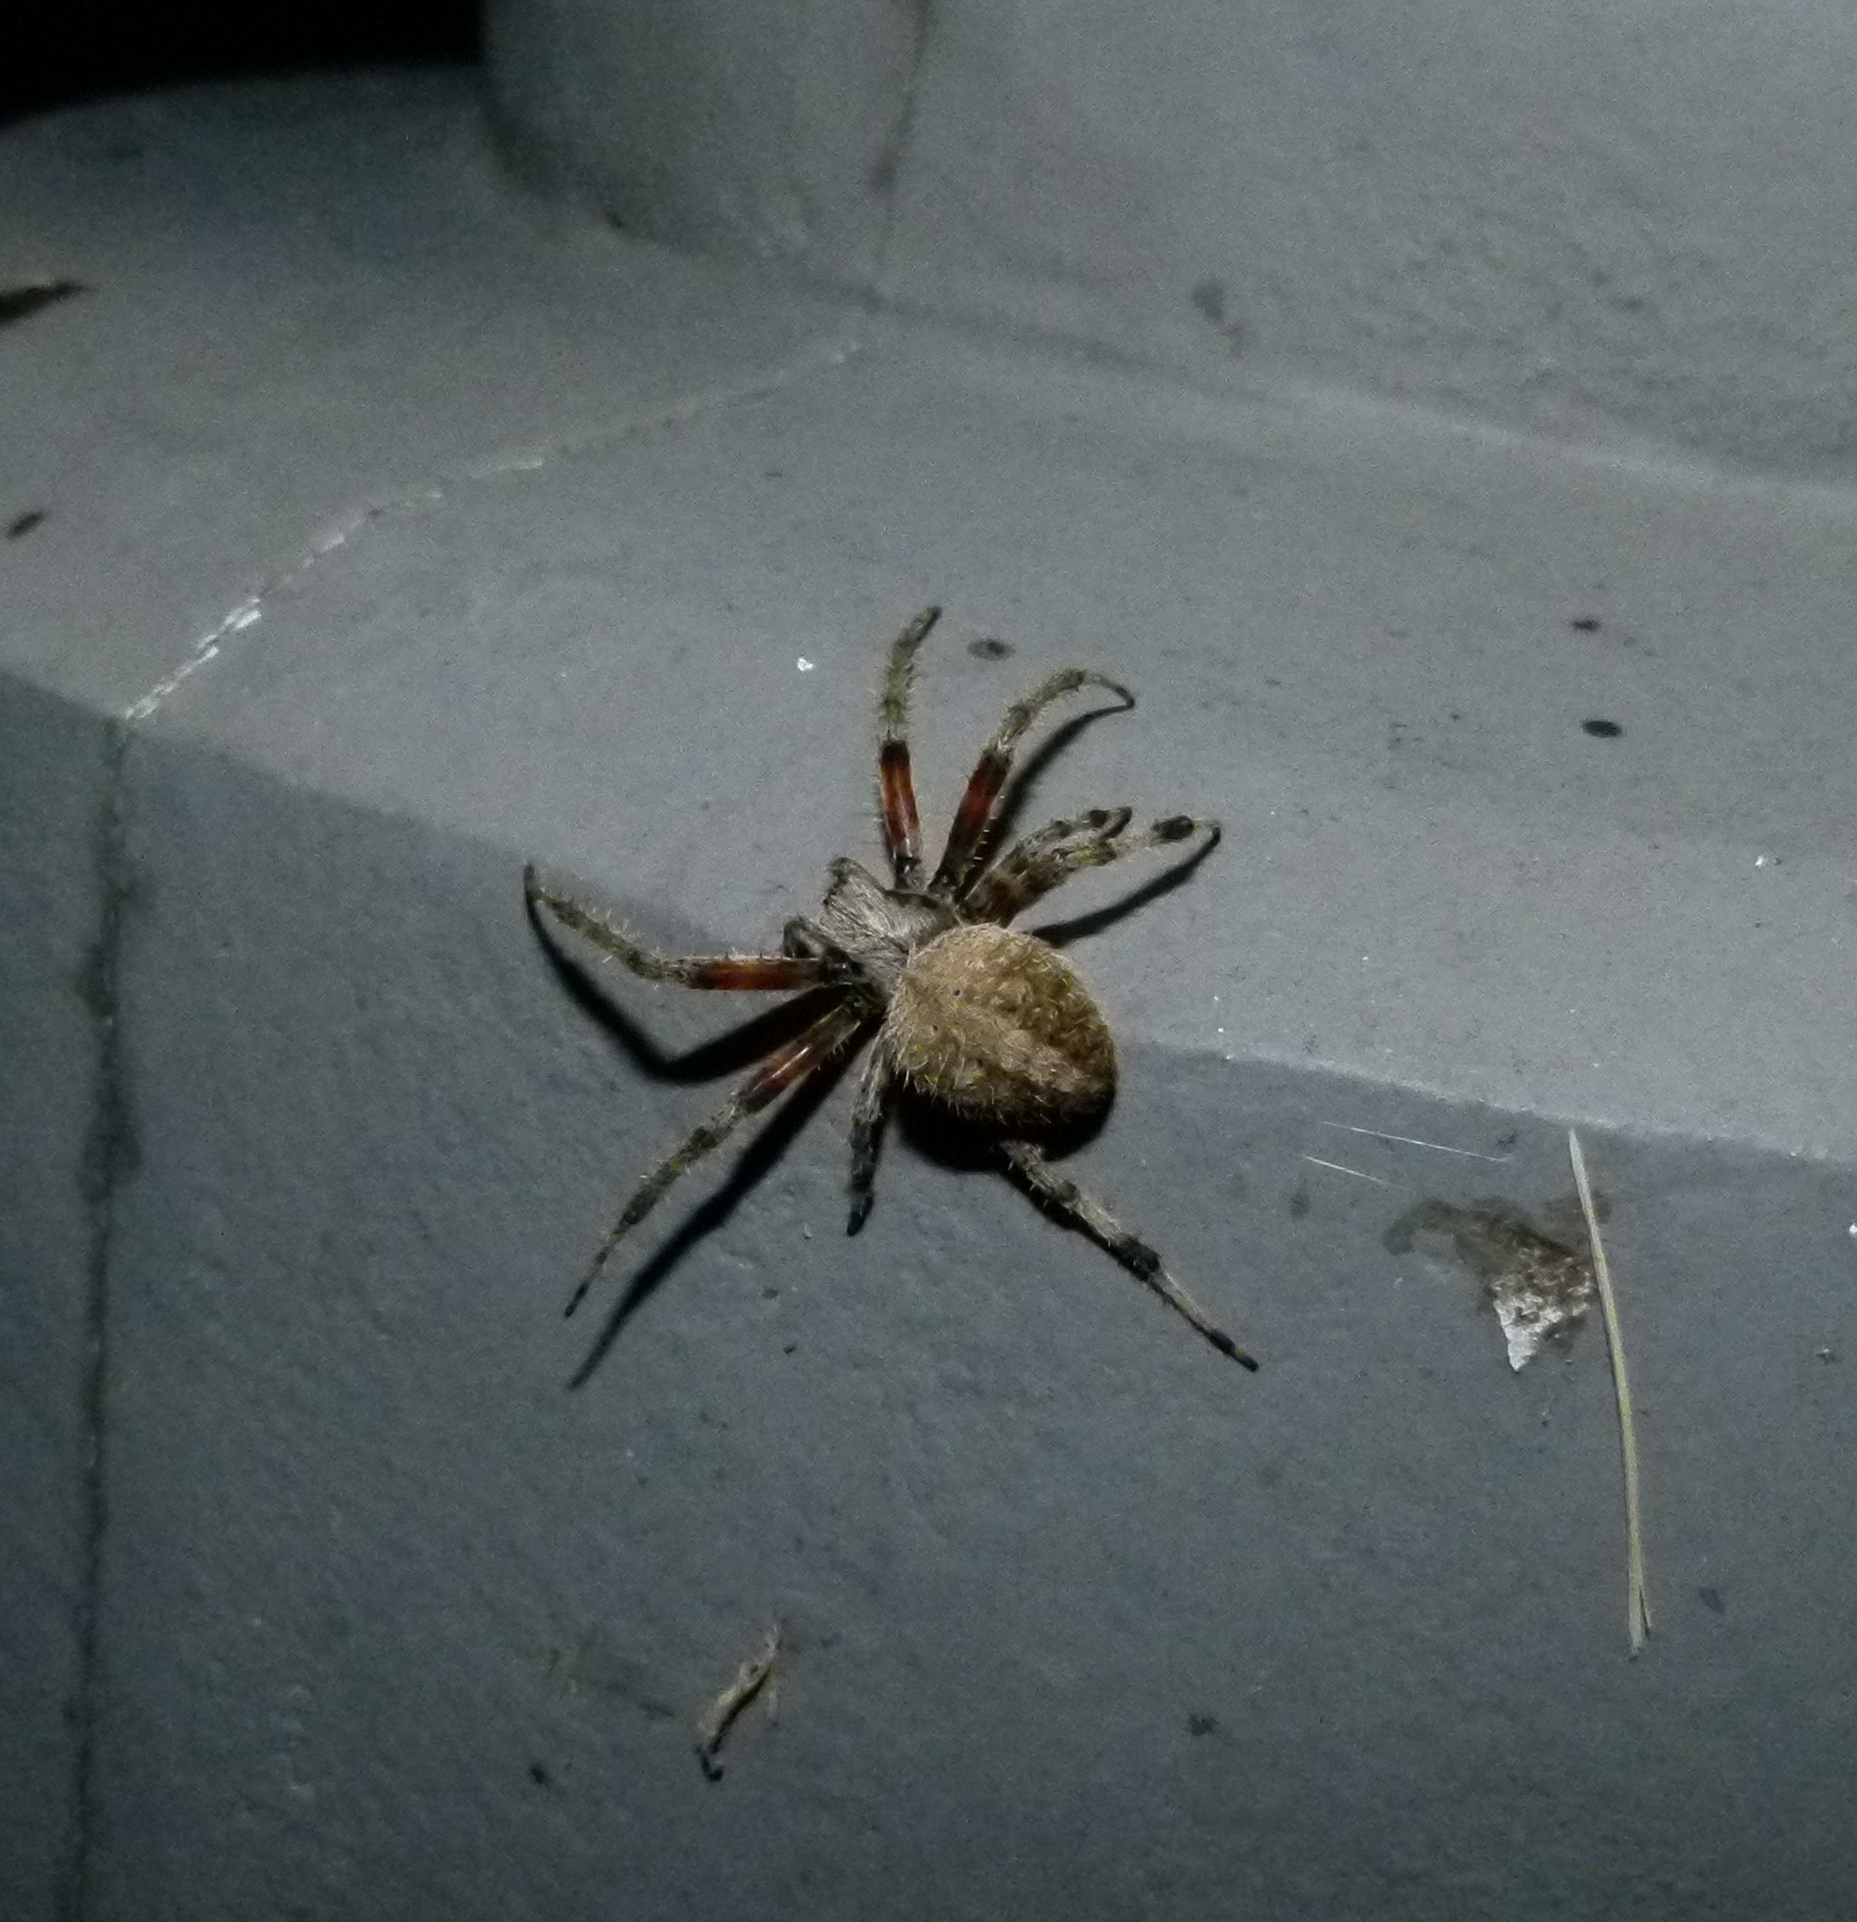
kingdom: Animalia
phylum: Arthropoda
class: Arachnida
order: Araneae
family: Araneidae
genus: Neoscona
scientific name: Neoscona crucifera
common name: Spotted orbweaver
